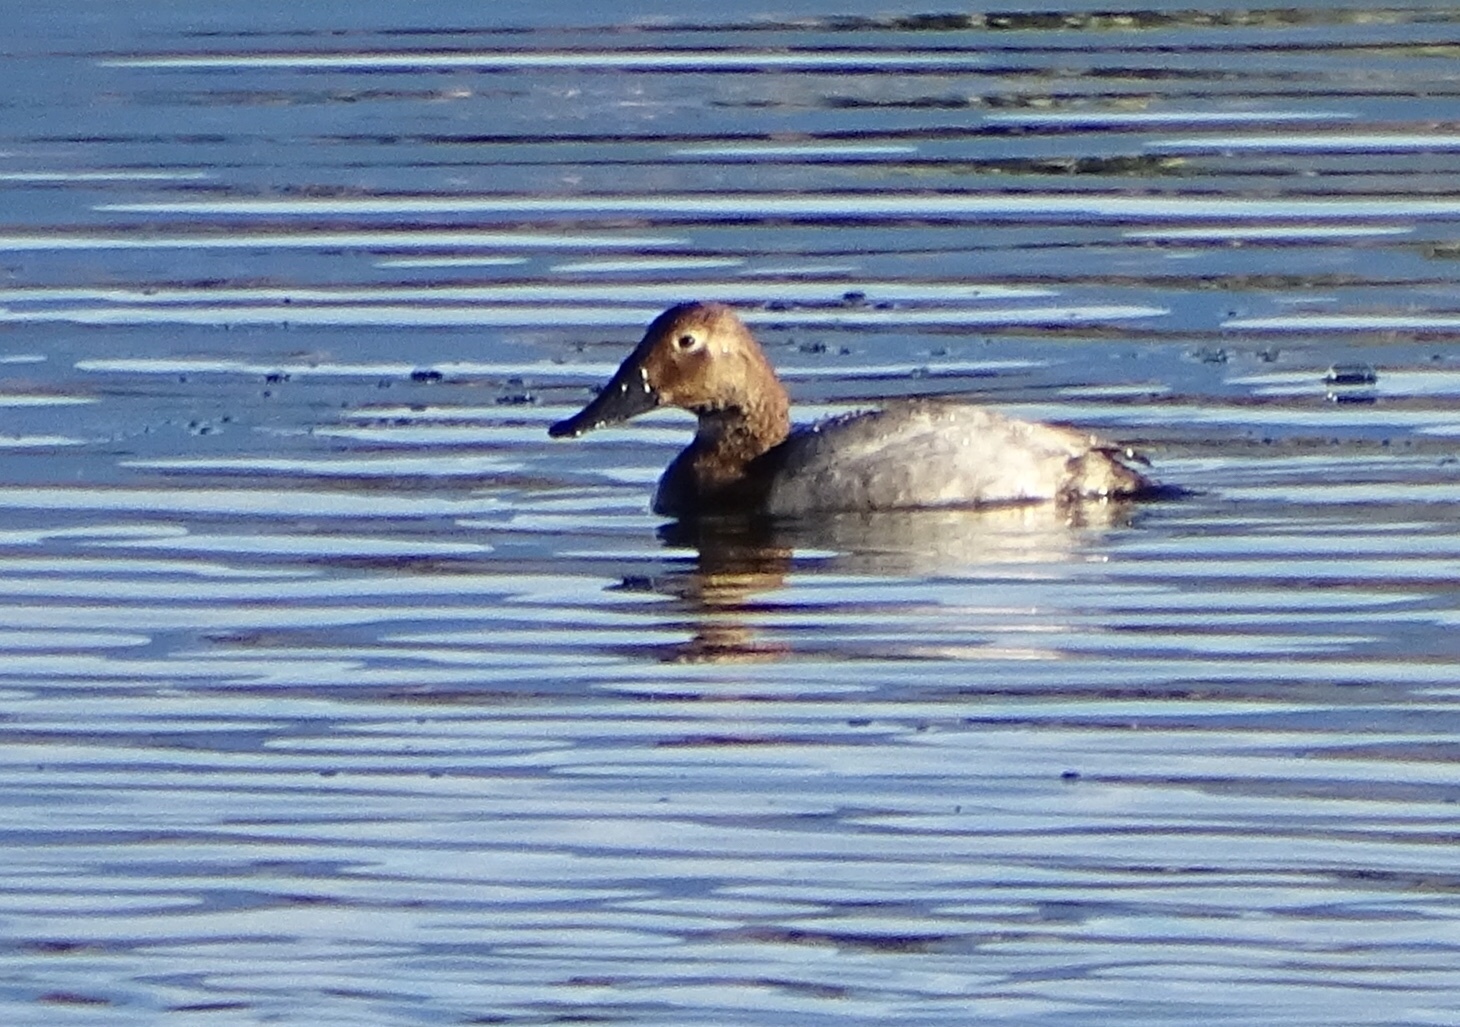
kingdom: Animalia
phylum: Chordata
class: Aves
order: Anseriformes
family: Anatidae
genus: Aythya
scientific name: Aythya valisineria
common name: Canvasback
